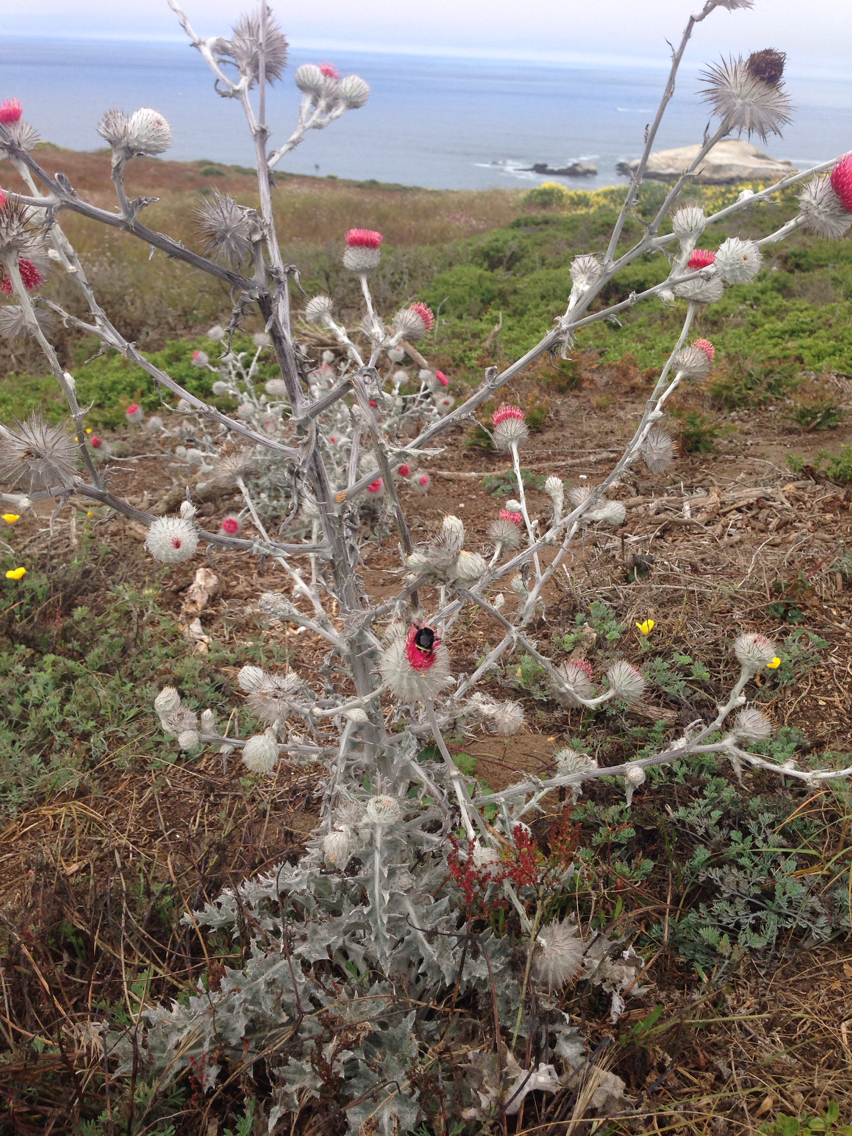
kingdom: Plantae
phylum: Tracheophyta
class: Magnoliopsida
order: Asterales
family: Asteraceae
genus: Cirsium
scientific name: Cirsium occidentale
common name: Western thistle
